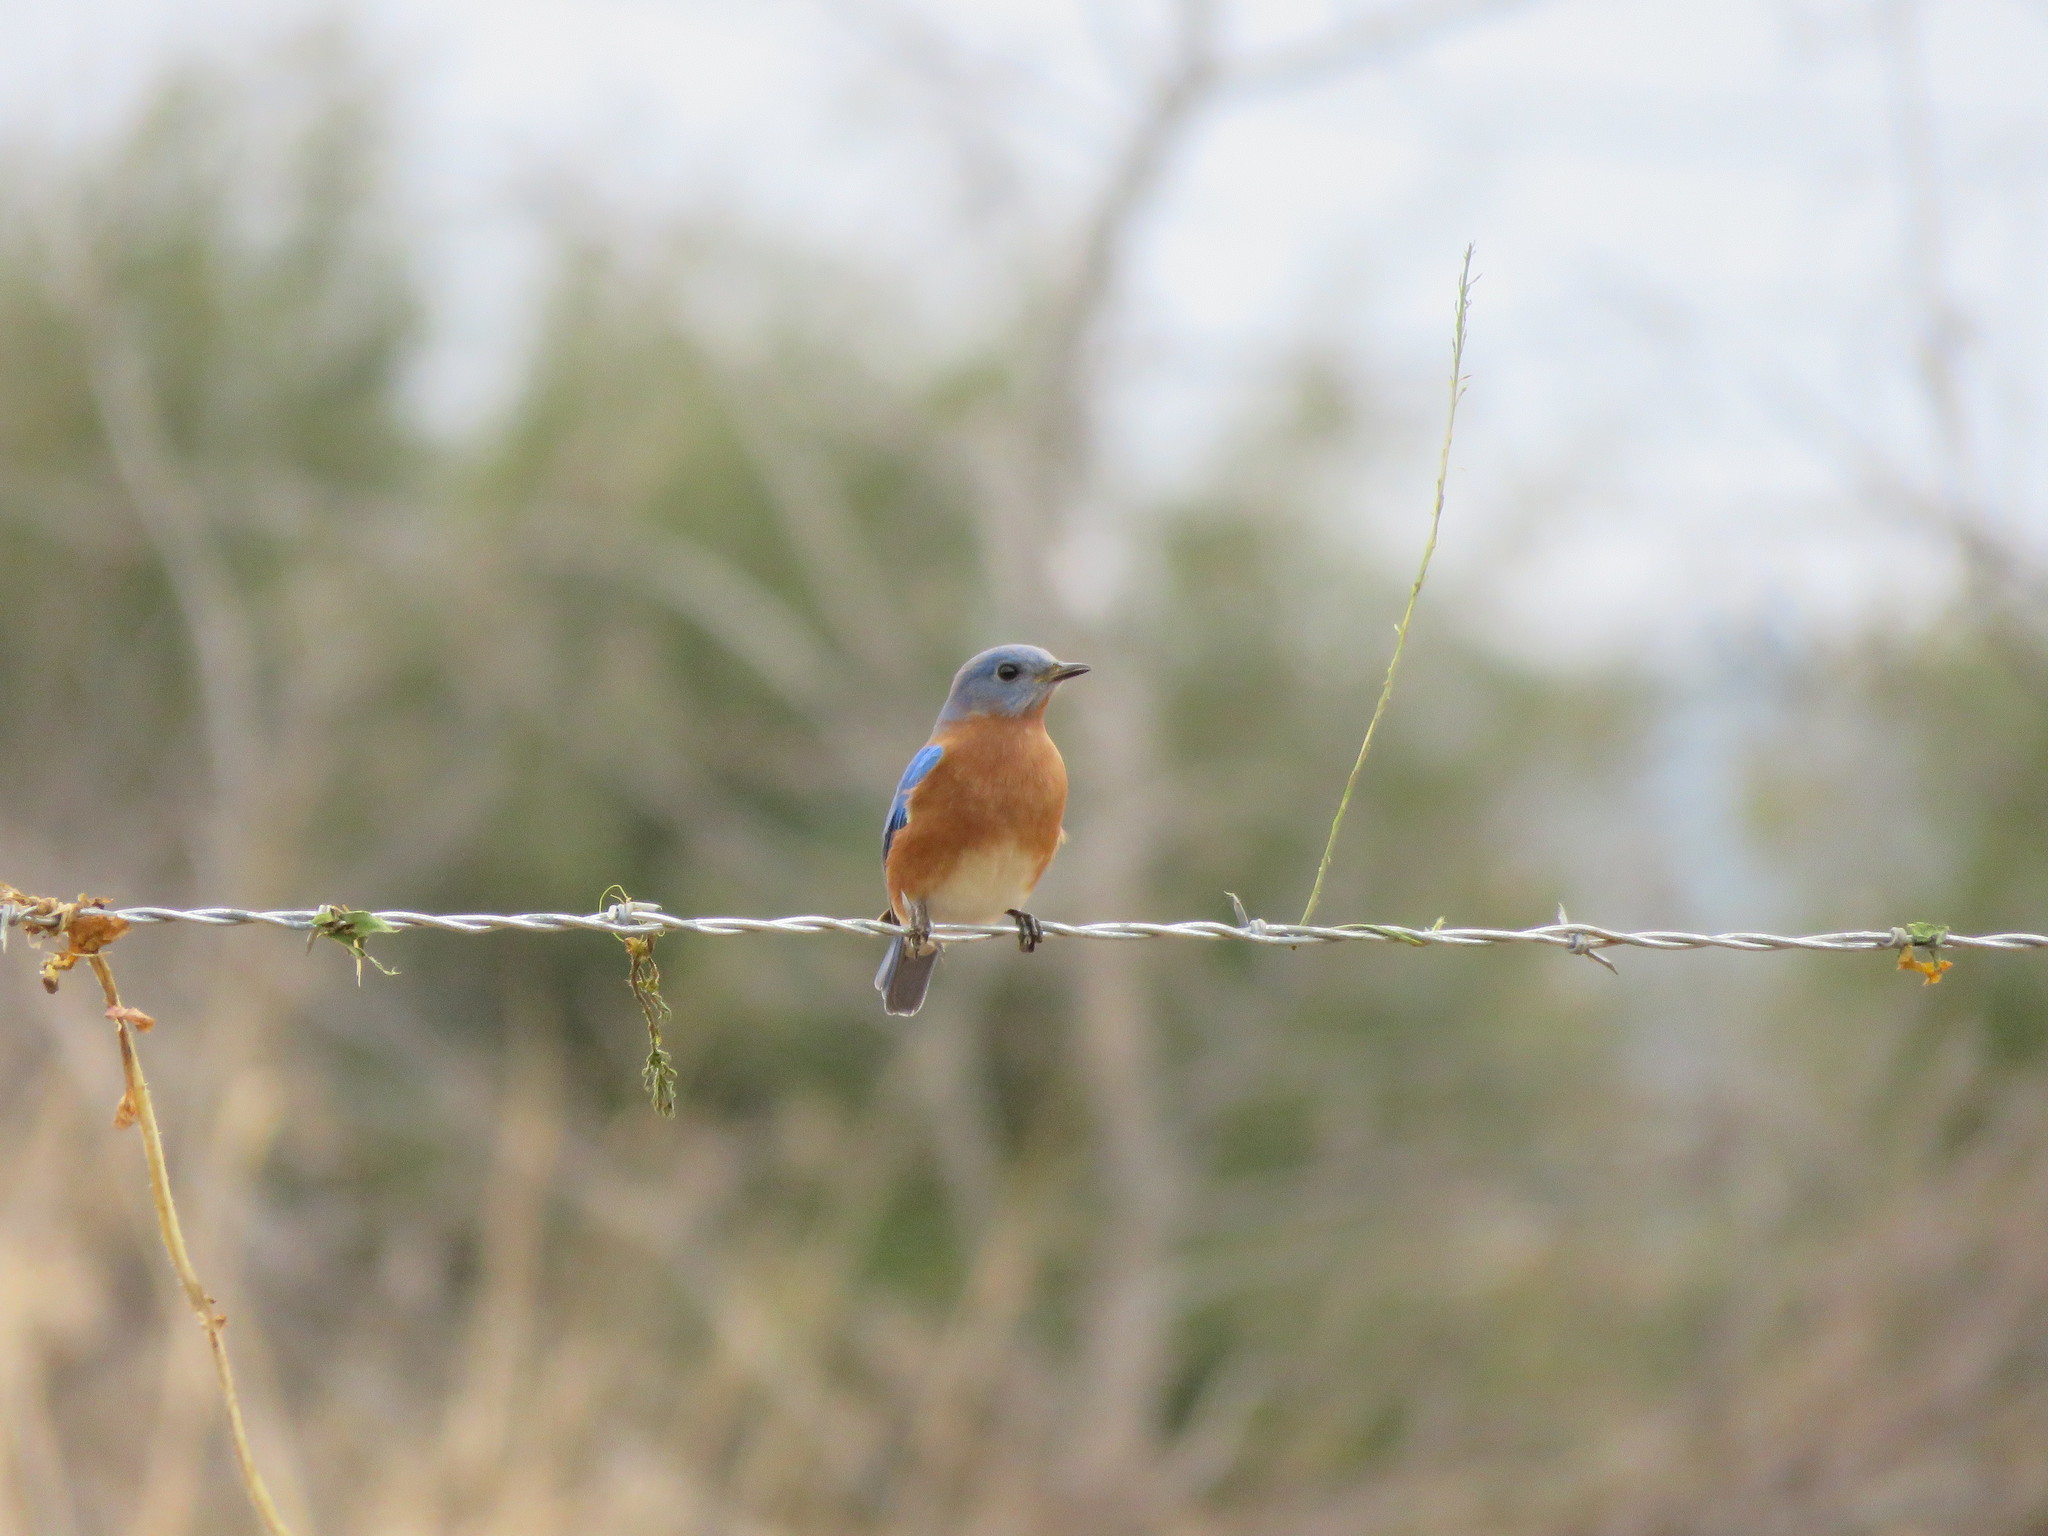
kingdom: Animalia
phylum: Chordata
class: Aves
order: Passeriformes
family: Turdidae
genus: Sialia
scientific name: Sialia sialis
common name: Eastern bluebird
